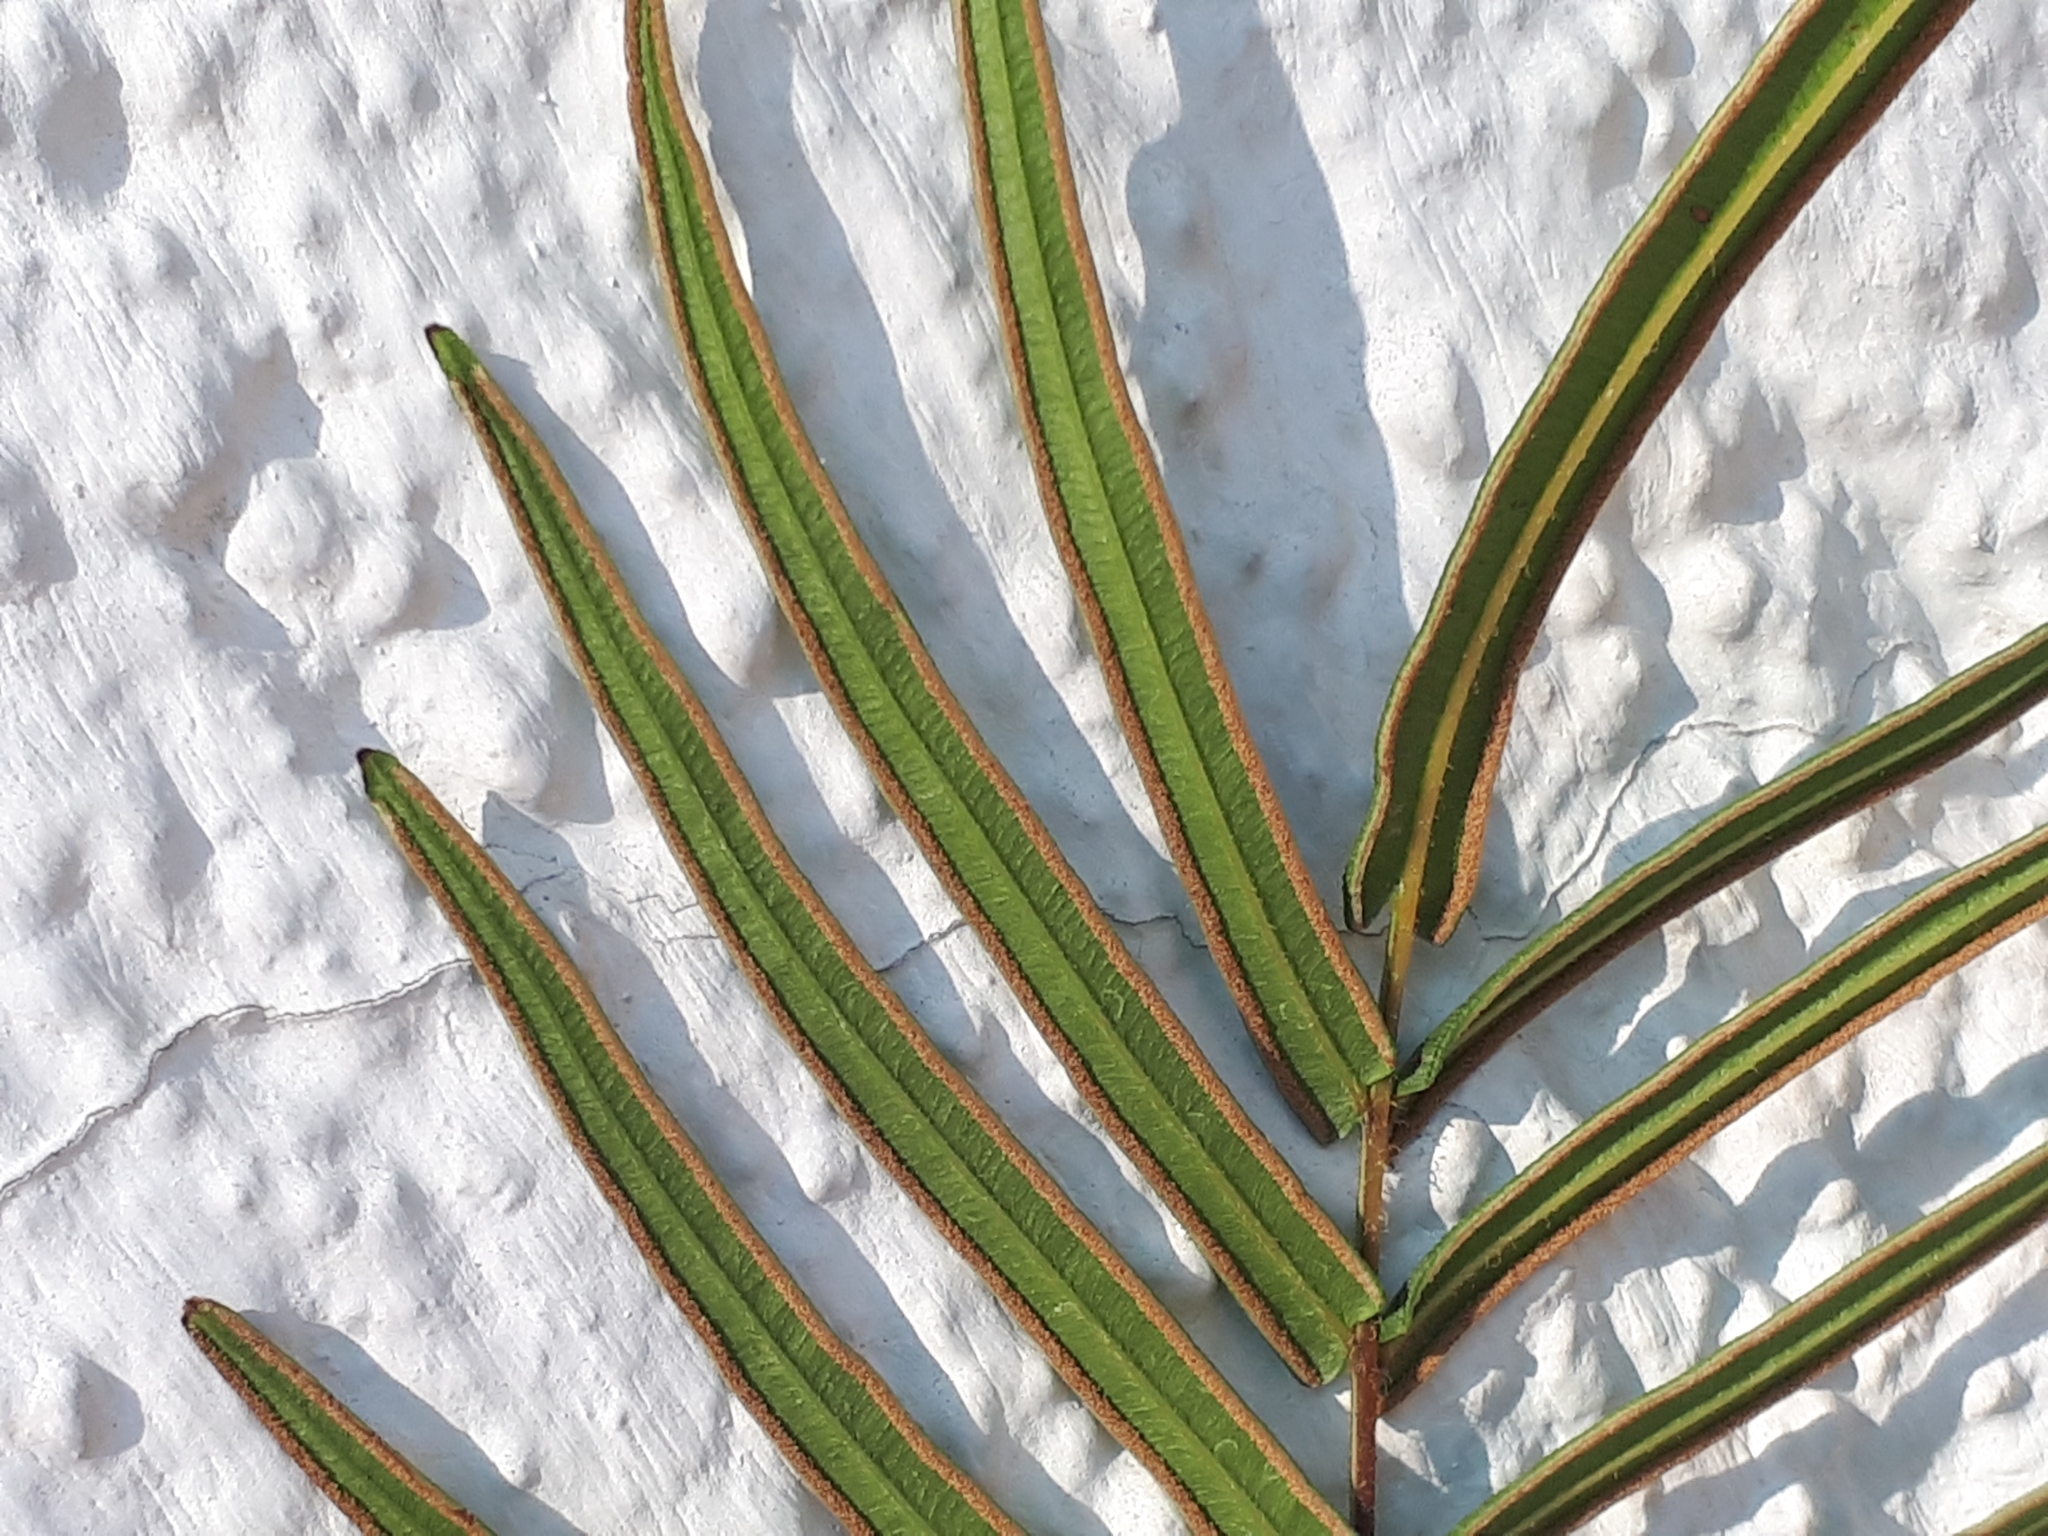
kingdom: Plantae
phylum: Tracheophyta
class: Polypodiopsida
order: Polypodiales
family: Pteridaceae
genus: Pteris
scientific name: Pteris vittata
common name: Ladder brake
